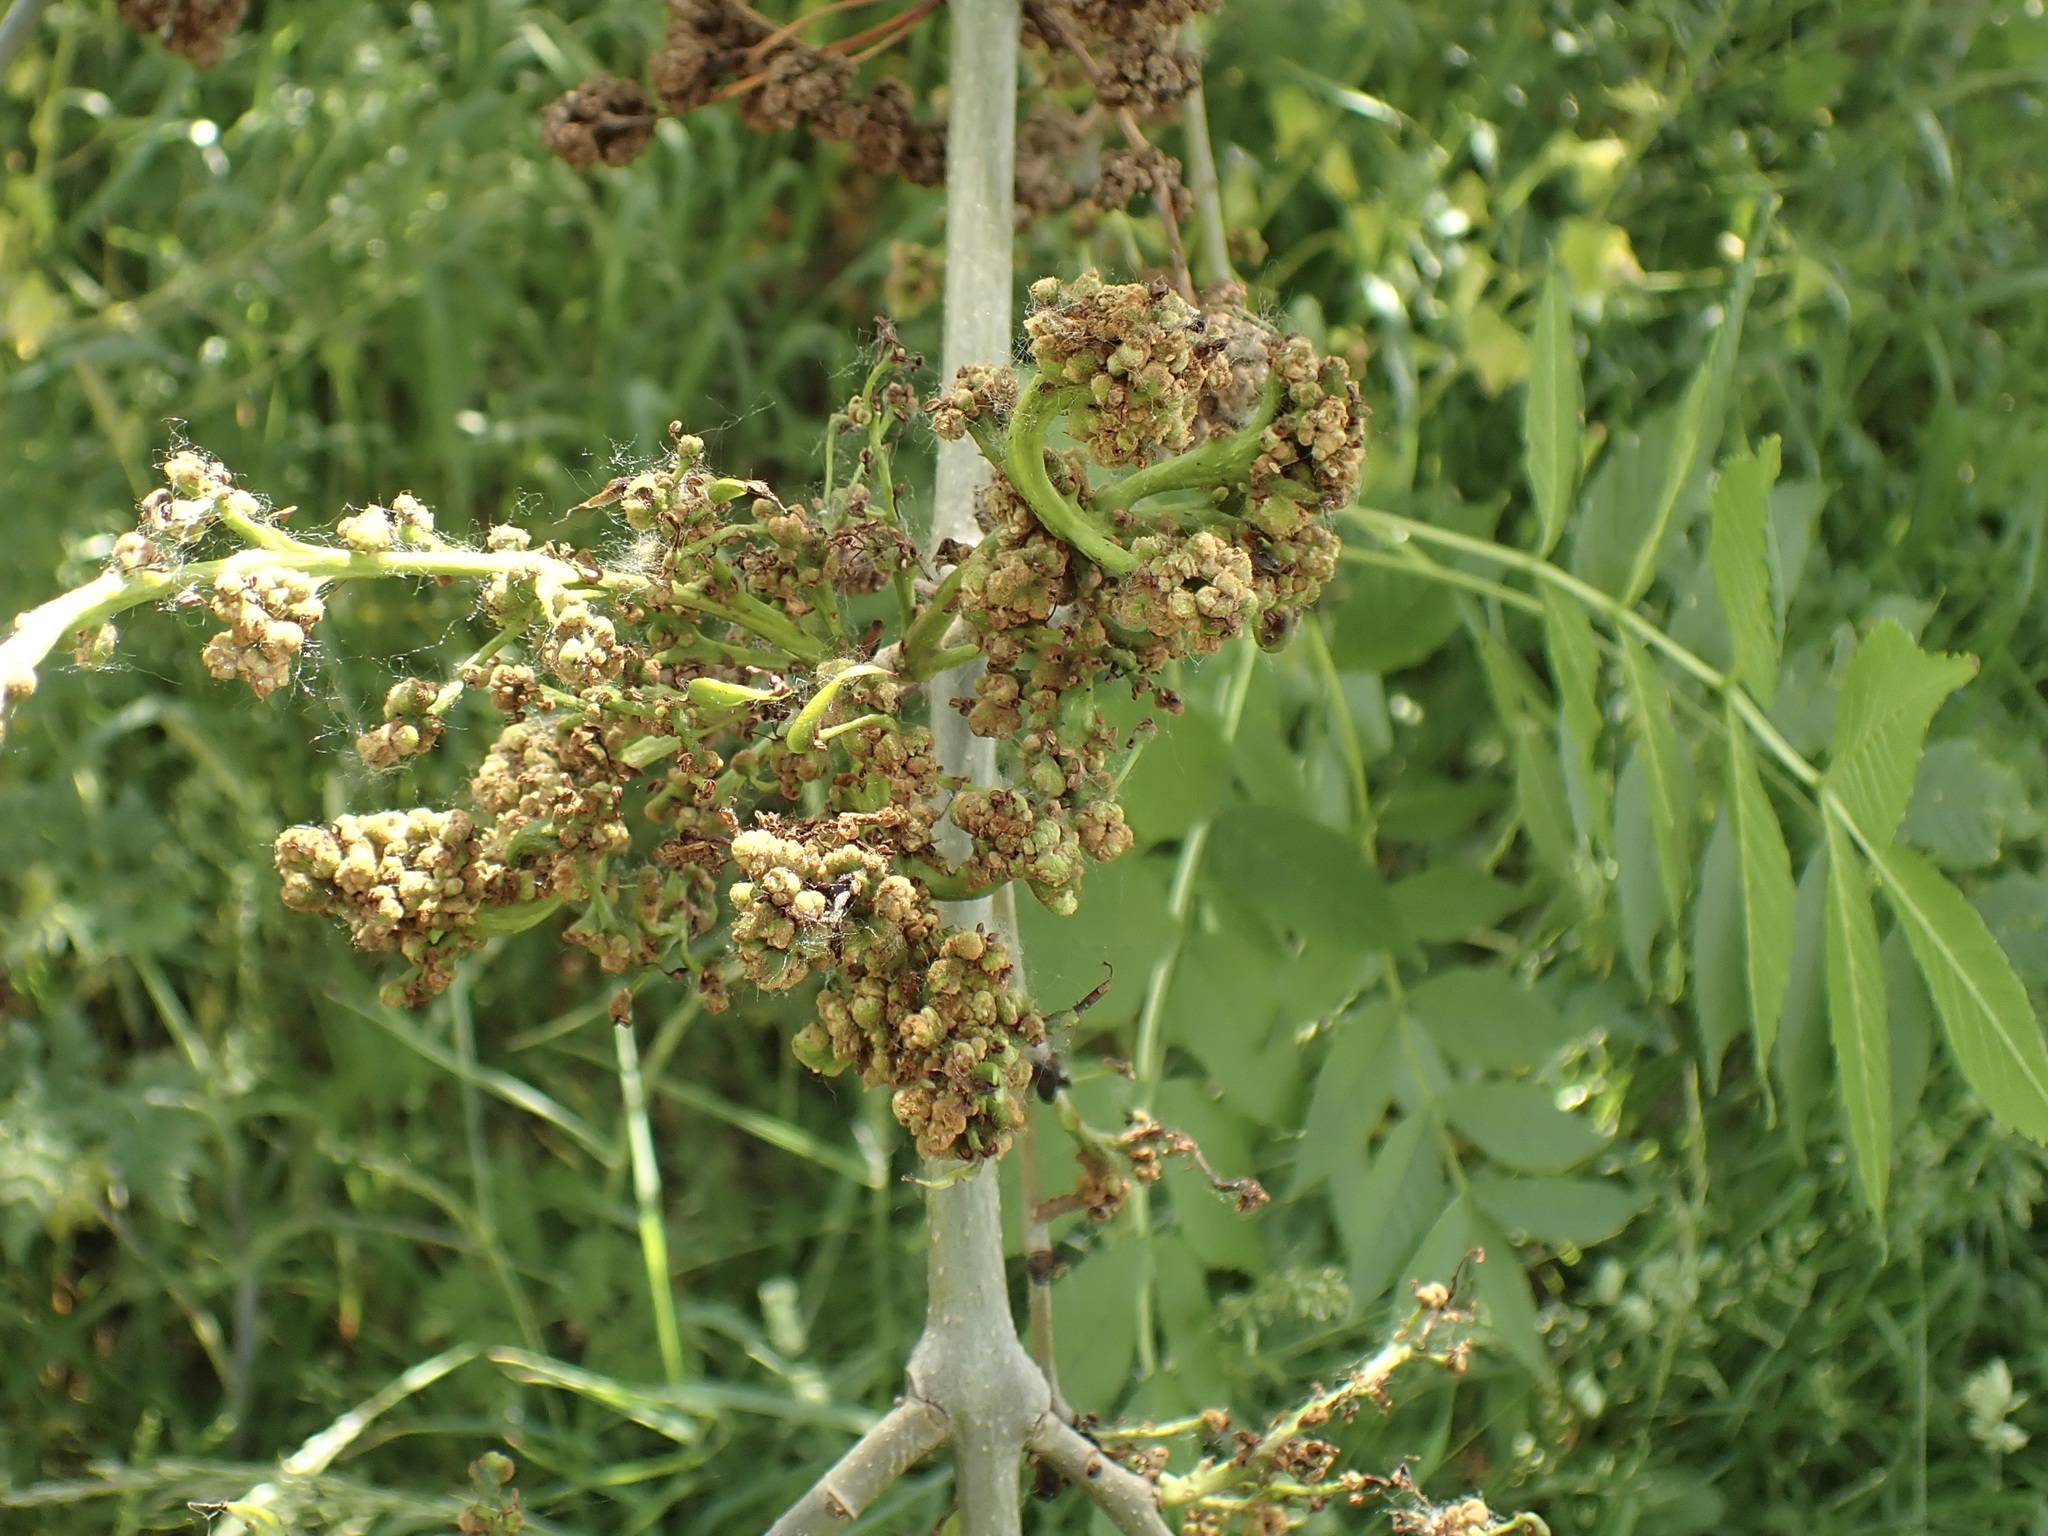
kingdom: Animalia
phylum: Arthropoda
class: Arachnida
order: Trombidiformes
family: Eriophyidae
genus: Aceria
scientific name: Aceria fraxinivora
